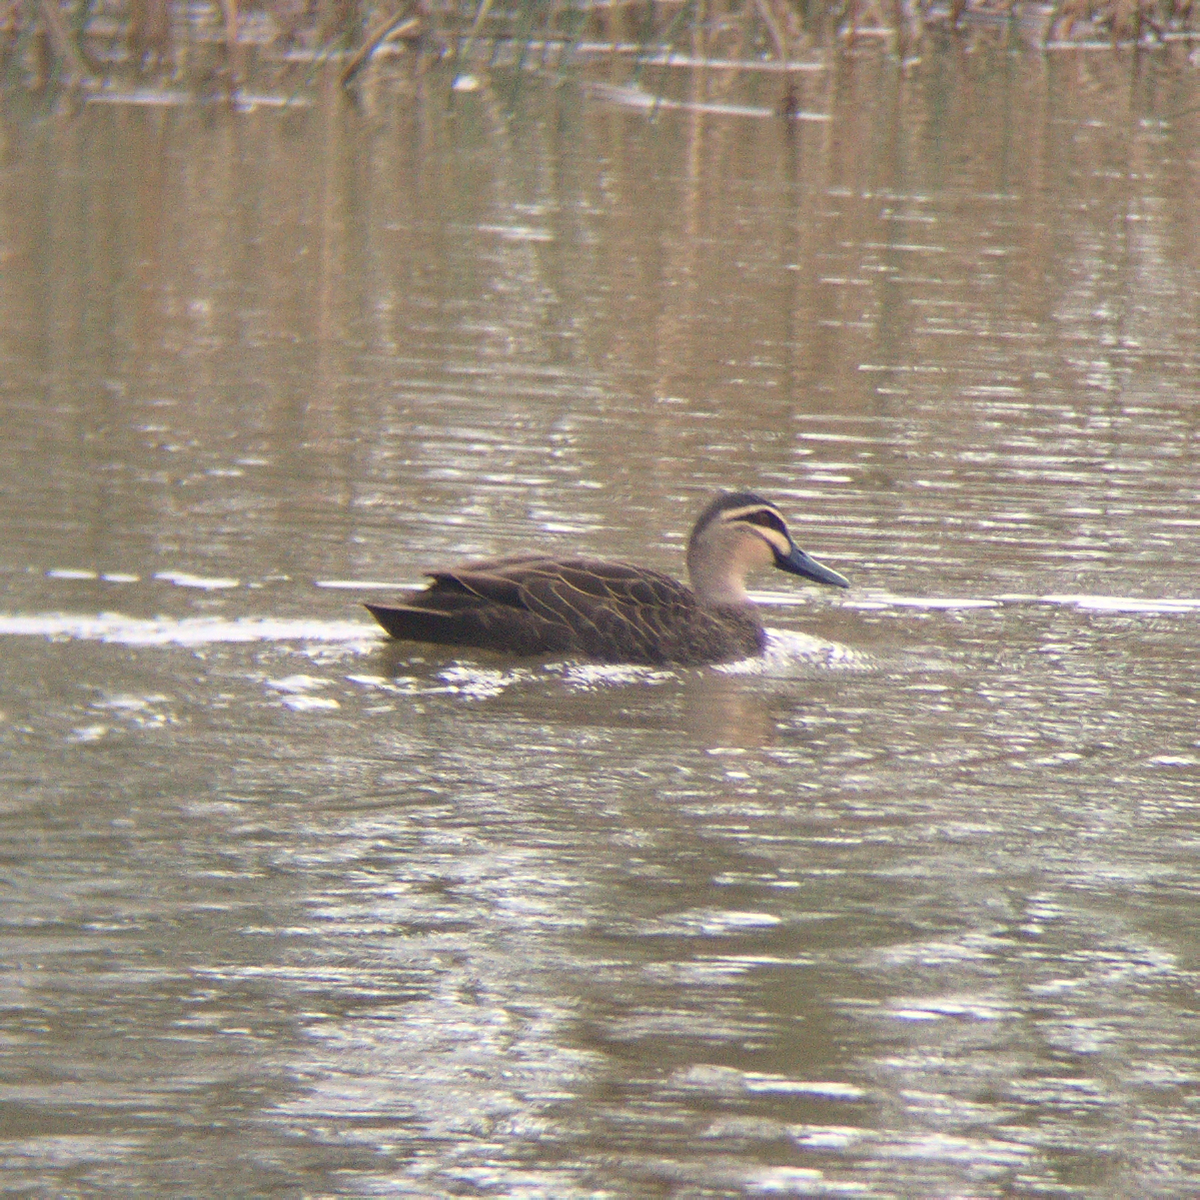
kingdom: Animalia
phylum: Chordata
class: Aves
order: Anseriformes
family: Anatidae
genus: Anas
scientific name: Anas superciliosa
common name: Pacific black duck
